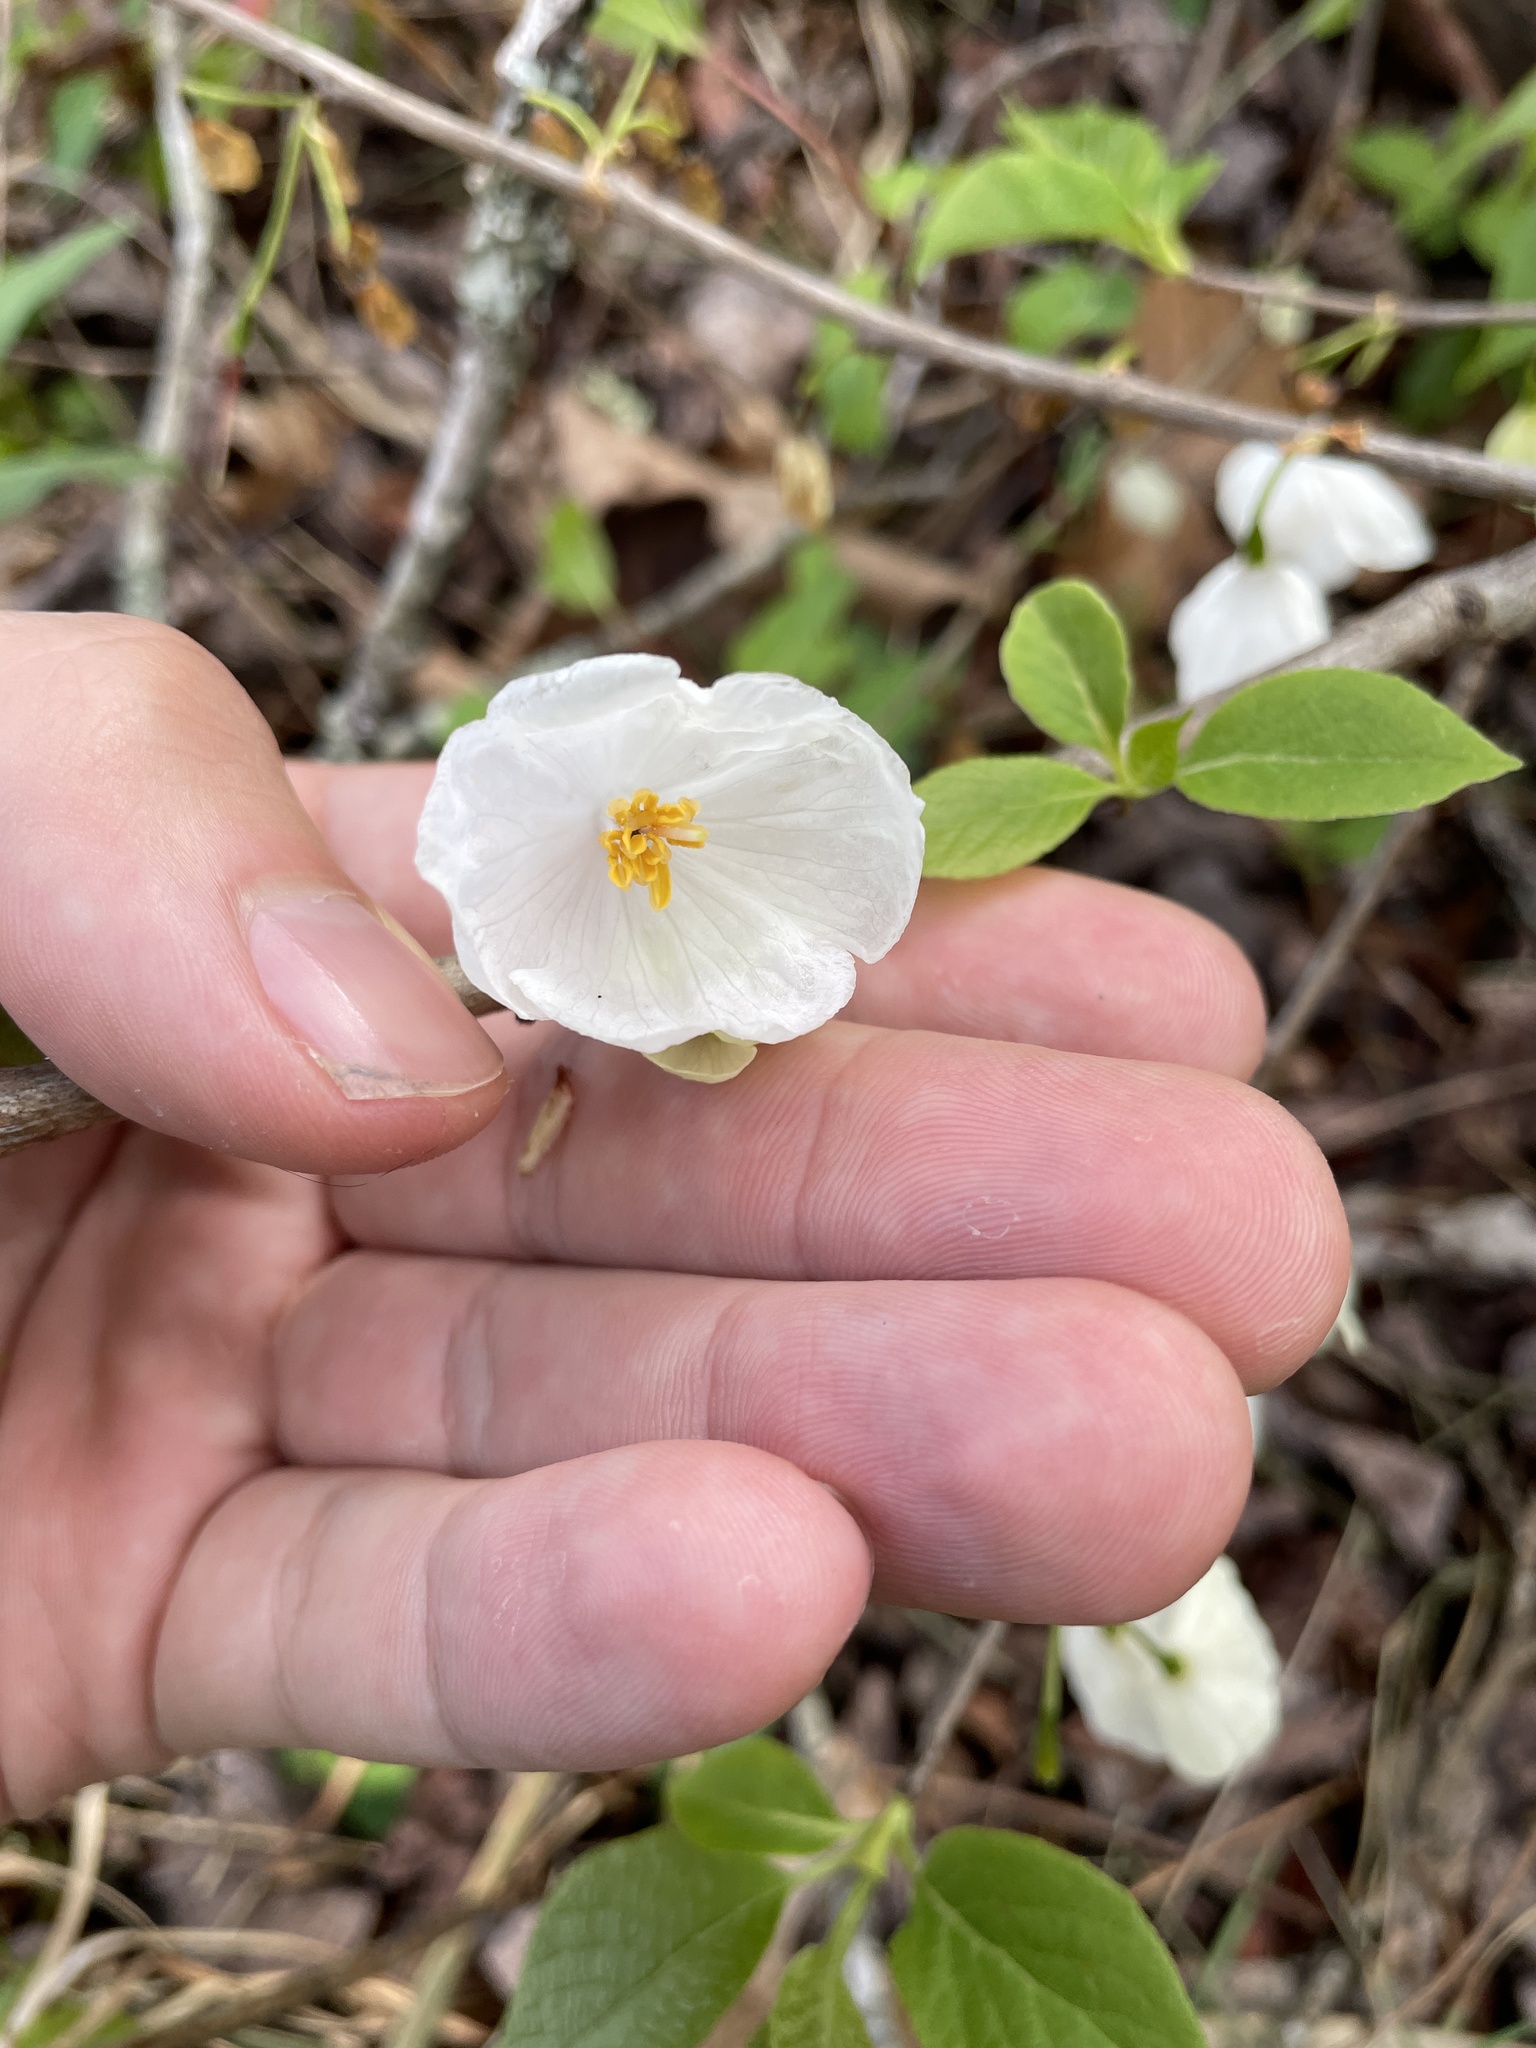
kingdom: Plantae
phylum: Tracheophyta
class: Magnoliopsida
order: Ericales
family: Styracaceae
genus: Halesia
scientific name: Halesia tetraptera
